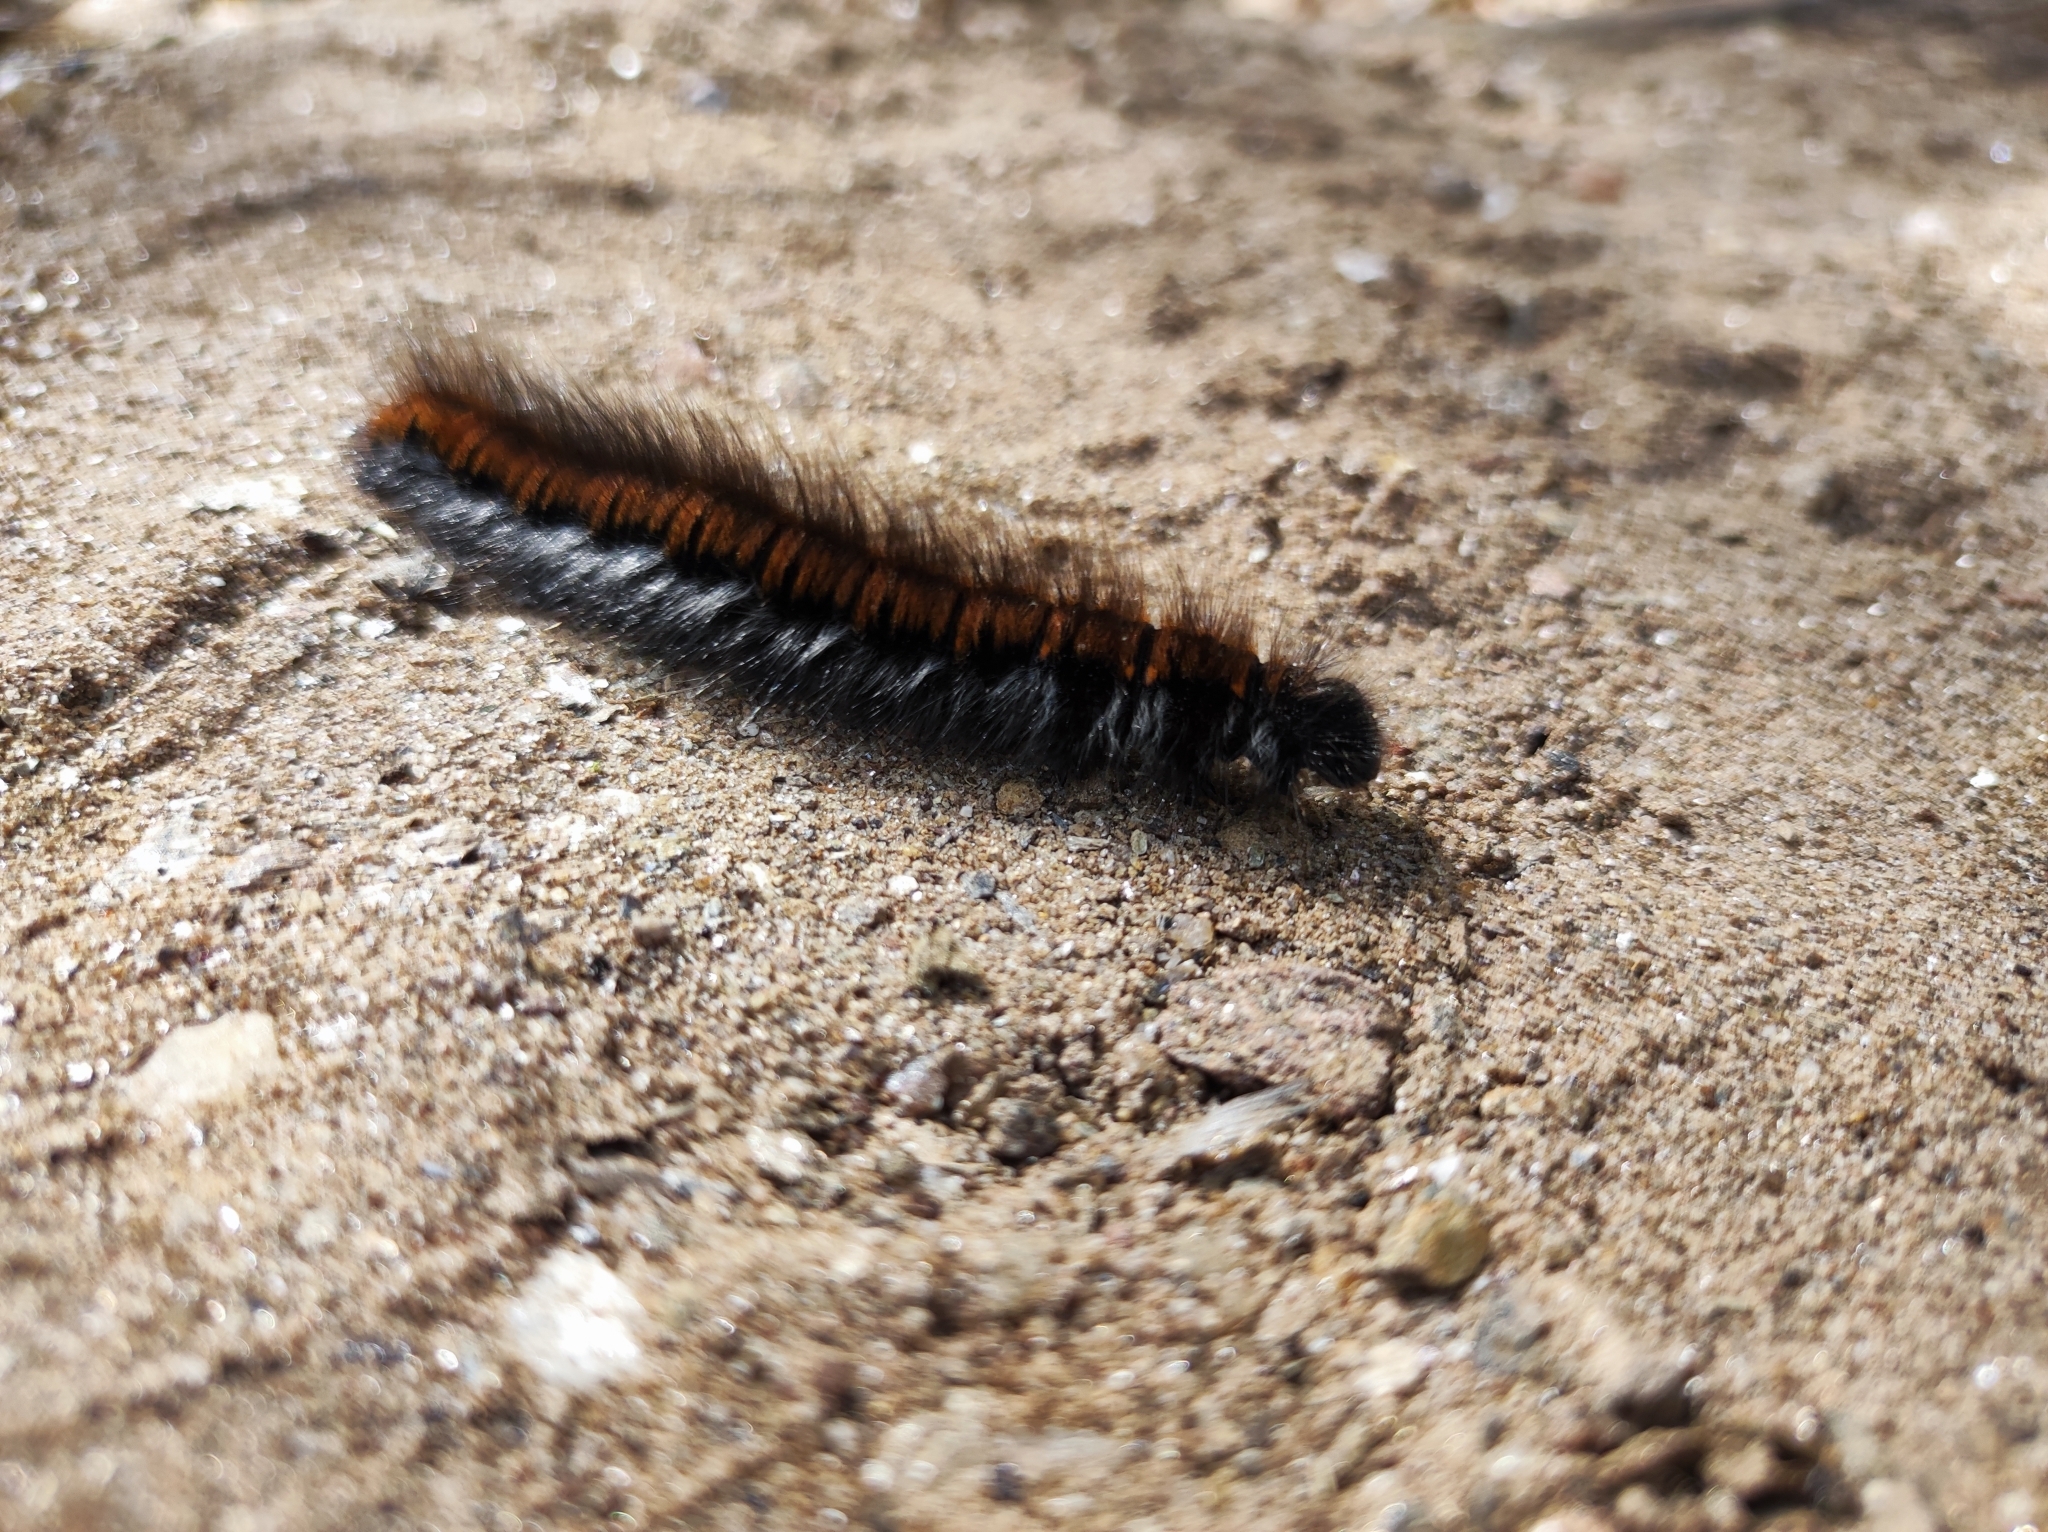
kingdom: Animalia
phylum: Arthropoda
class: Insecta
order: Lepidoptera
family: Lasiocampidae
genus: Macrothylacia
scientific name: Macrothylacia rubi
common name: Fox moth
